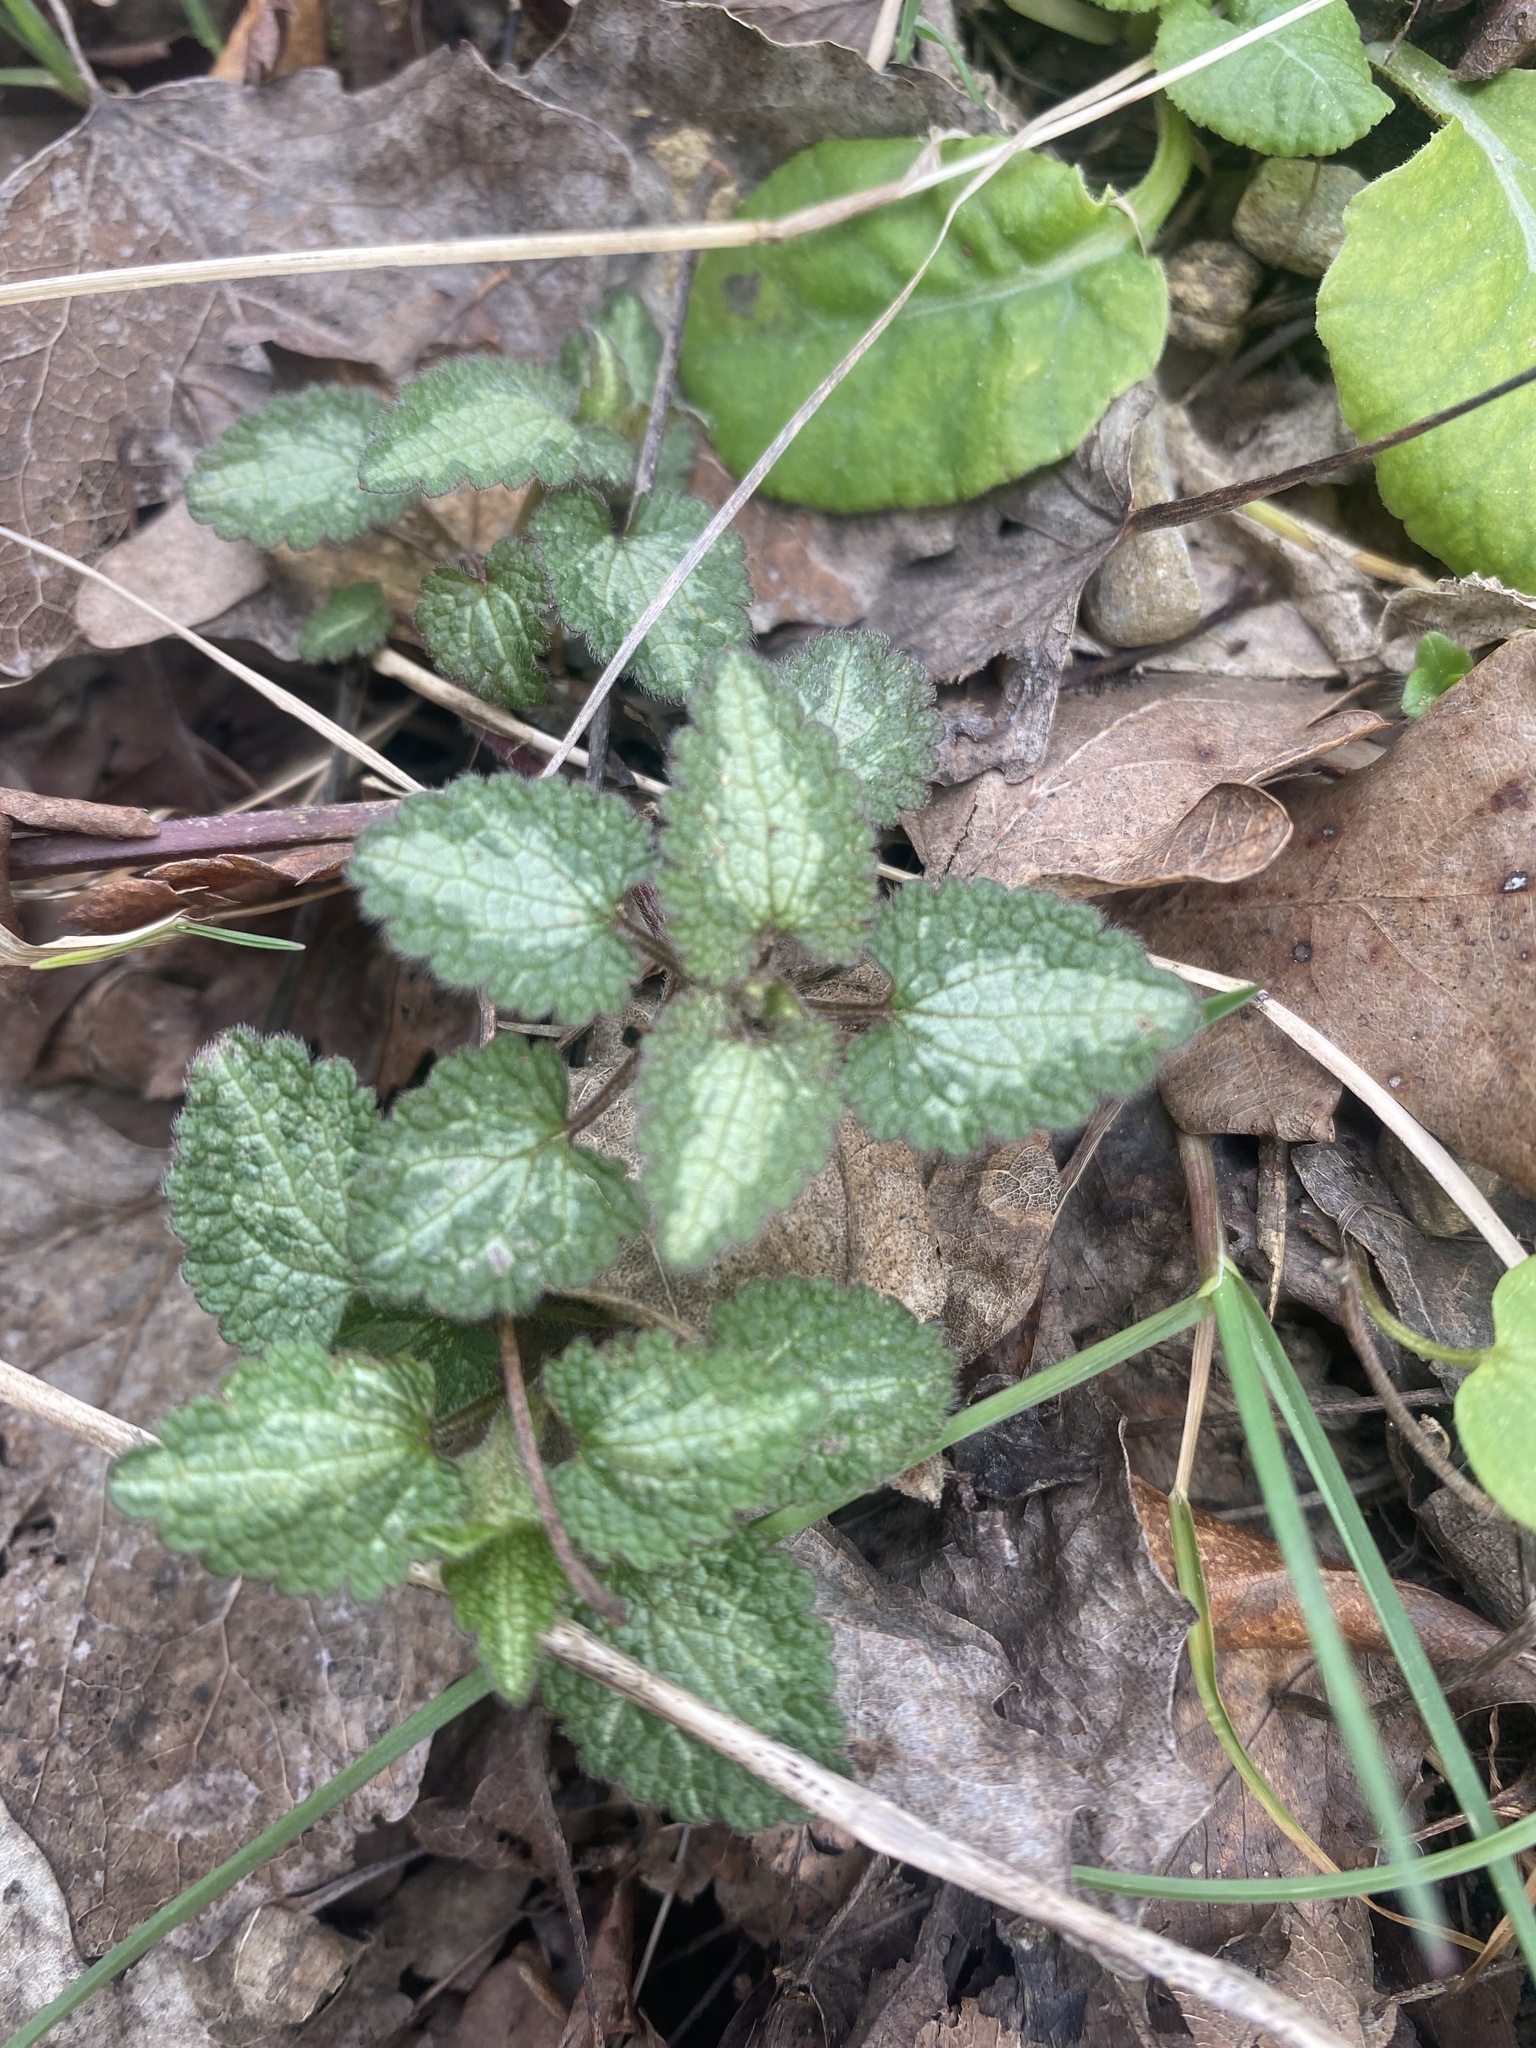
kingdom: Plantae
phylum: Tracheophyta
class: Magnoliopsida
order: Lamiales
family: Lamiaceae
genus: Lamium
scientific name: Lamium maculatum
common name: Spotted dead-nettle
